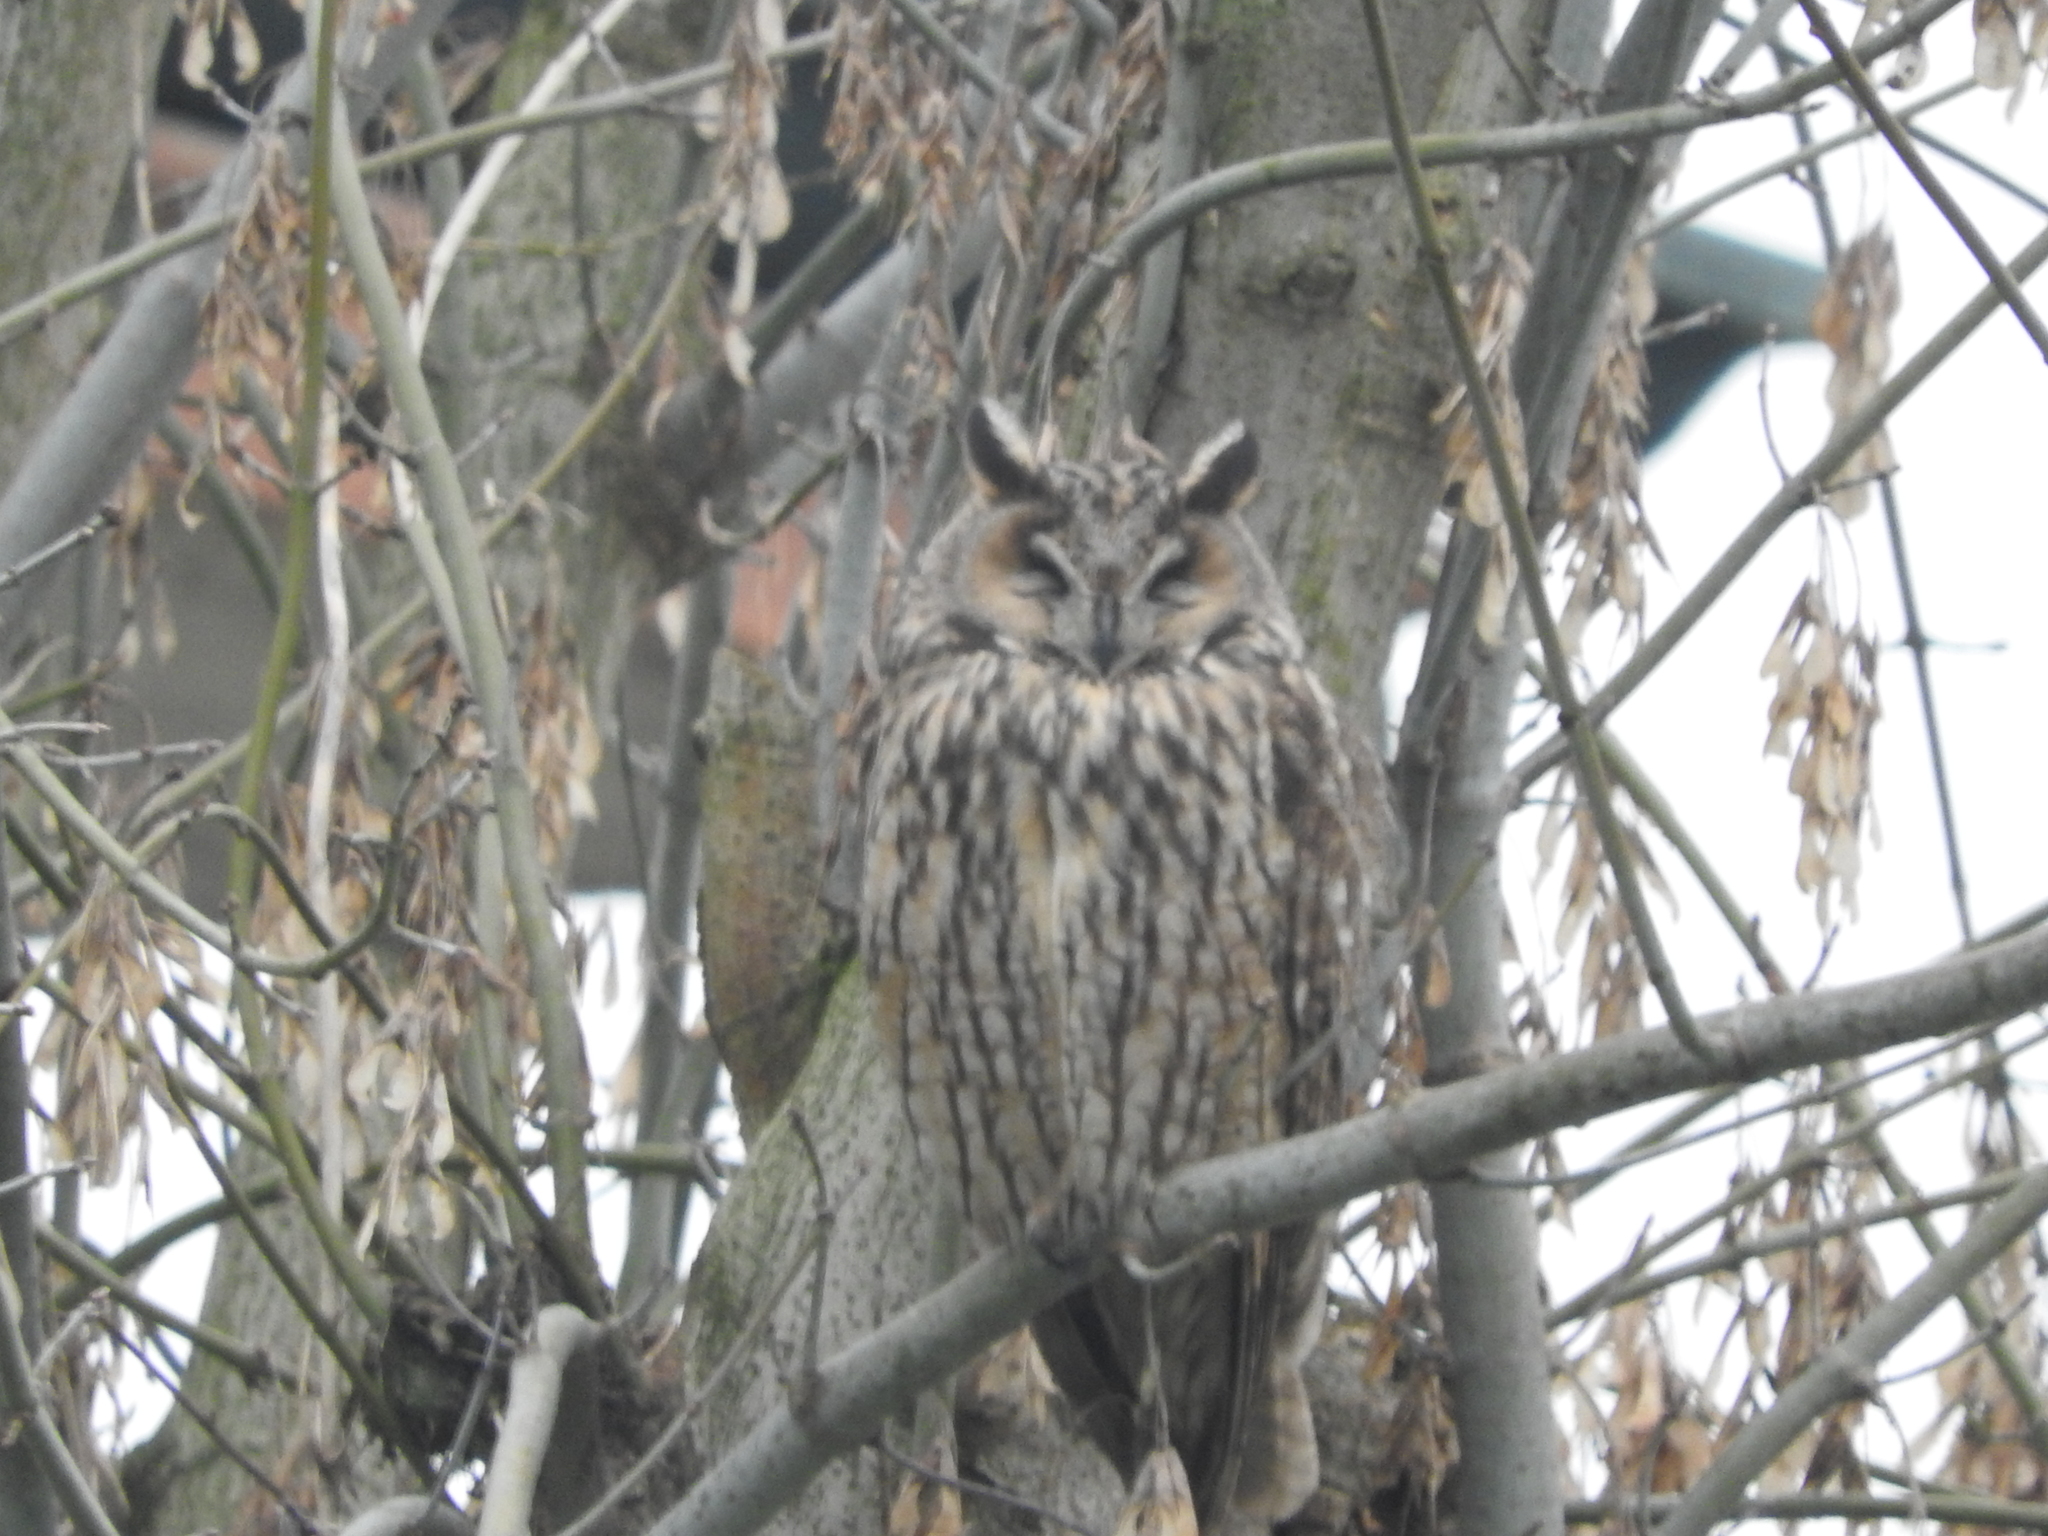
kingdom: Animalia
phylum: Chordata
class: Aves
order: Strigiformes
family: Strigidae
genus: Asio
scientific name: Asio otus
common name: Long-eared owl
